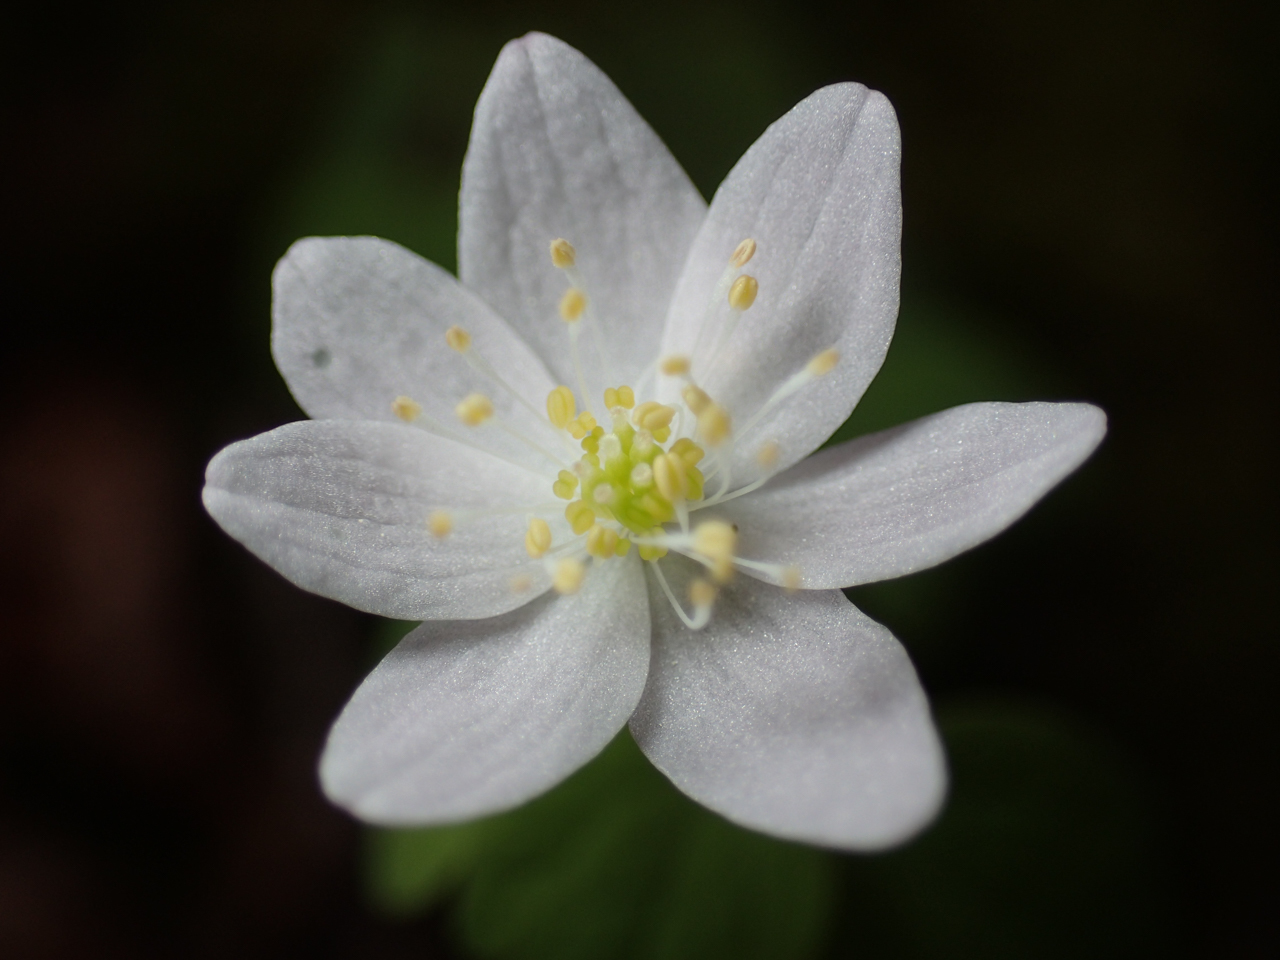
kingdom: Plantae
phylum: Tracheophyta
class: Magnoliopsida
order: Ranunculales
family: Ranunculaceae
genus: Thalictrum
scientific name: Thalictrum thalictroides
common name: Rue-anemone
